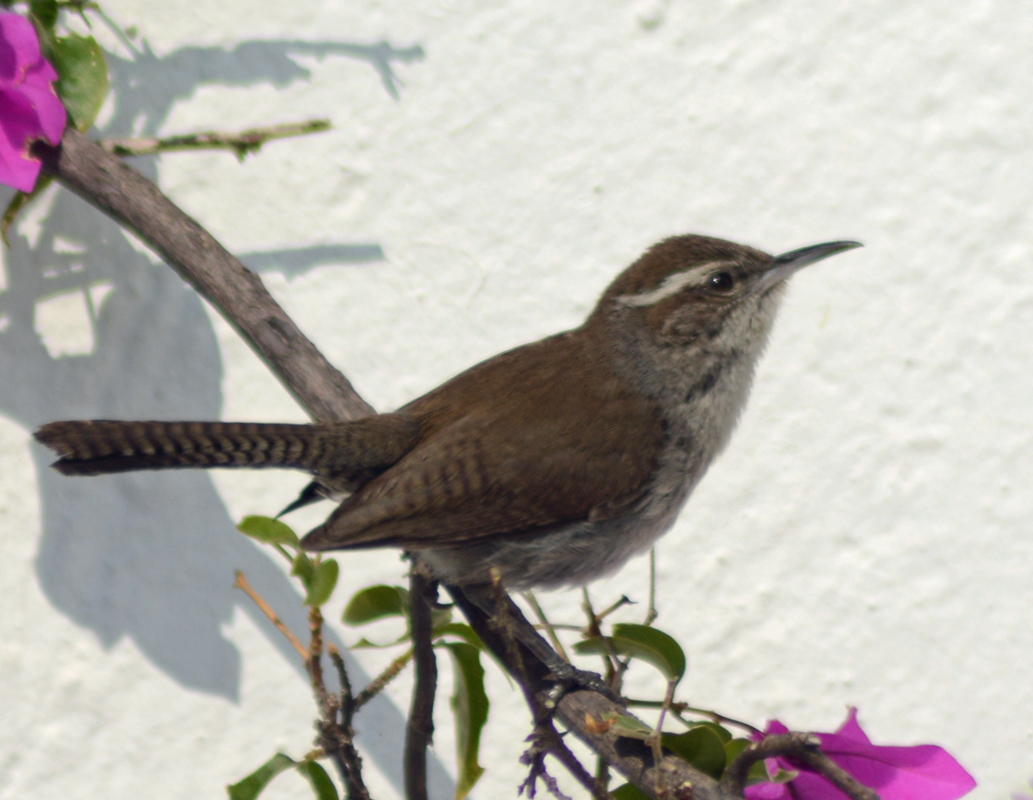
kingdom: Animalia
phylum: Chordata
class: Aves
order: Passeriformes
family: Troglodytidae
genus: Thryomanes
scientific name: Thryomanes bewickii
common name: Bewick's wren
